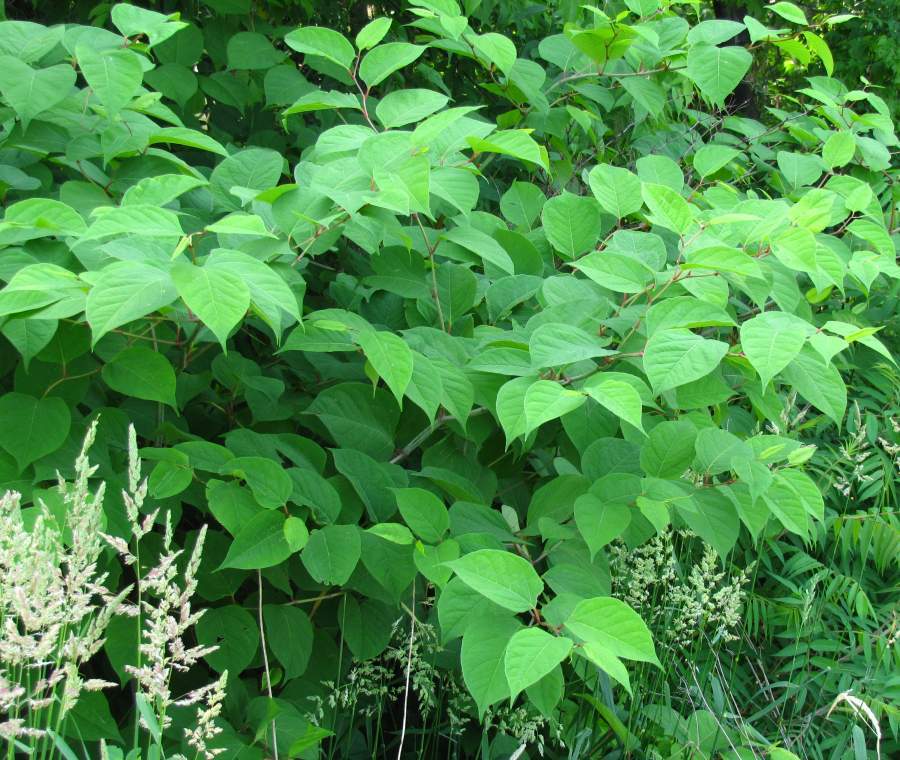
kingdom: Plantae
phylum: Tracheophyta
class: Magnoliopsida
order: Caryophyllales
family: Polygonaceae
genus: Reynoutria
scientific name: Reynoutria japonica
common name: Japanese knotweed
